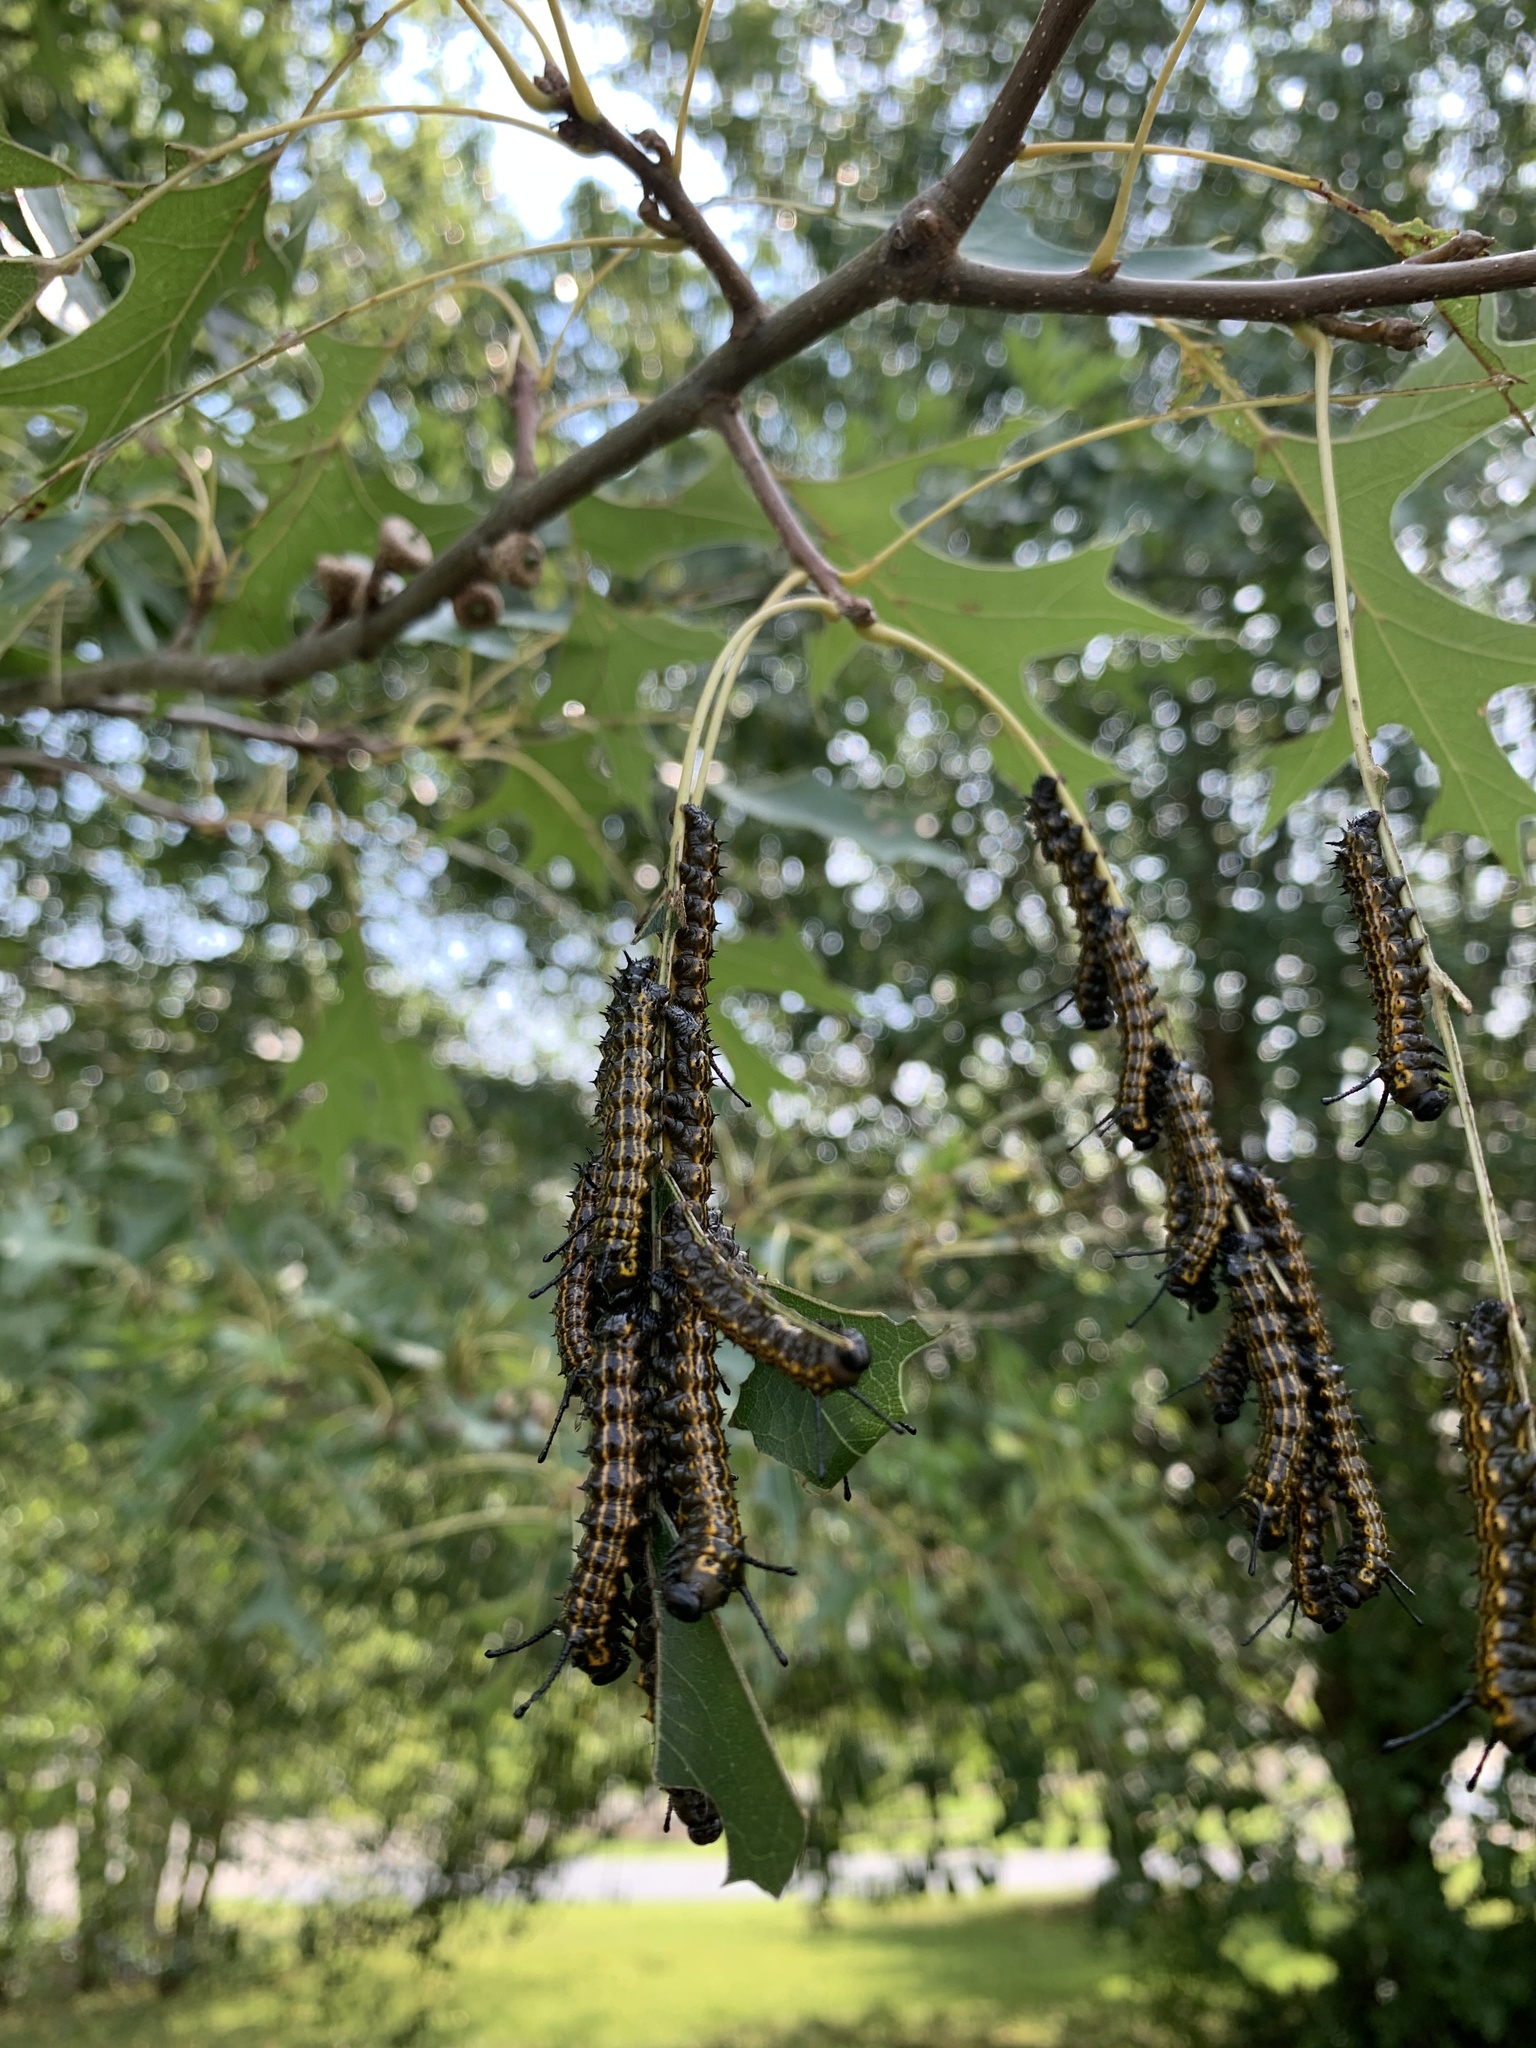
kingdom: Animalia
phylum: Arthropoda
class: Insecta
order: Lepidoptera
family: Saturniidae
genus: Anisota
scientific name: Anisota peigleri
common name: Peigler's oakworm moth
